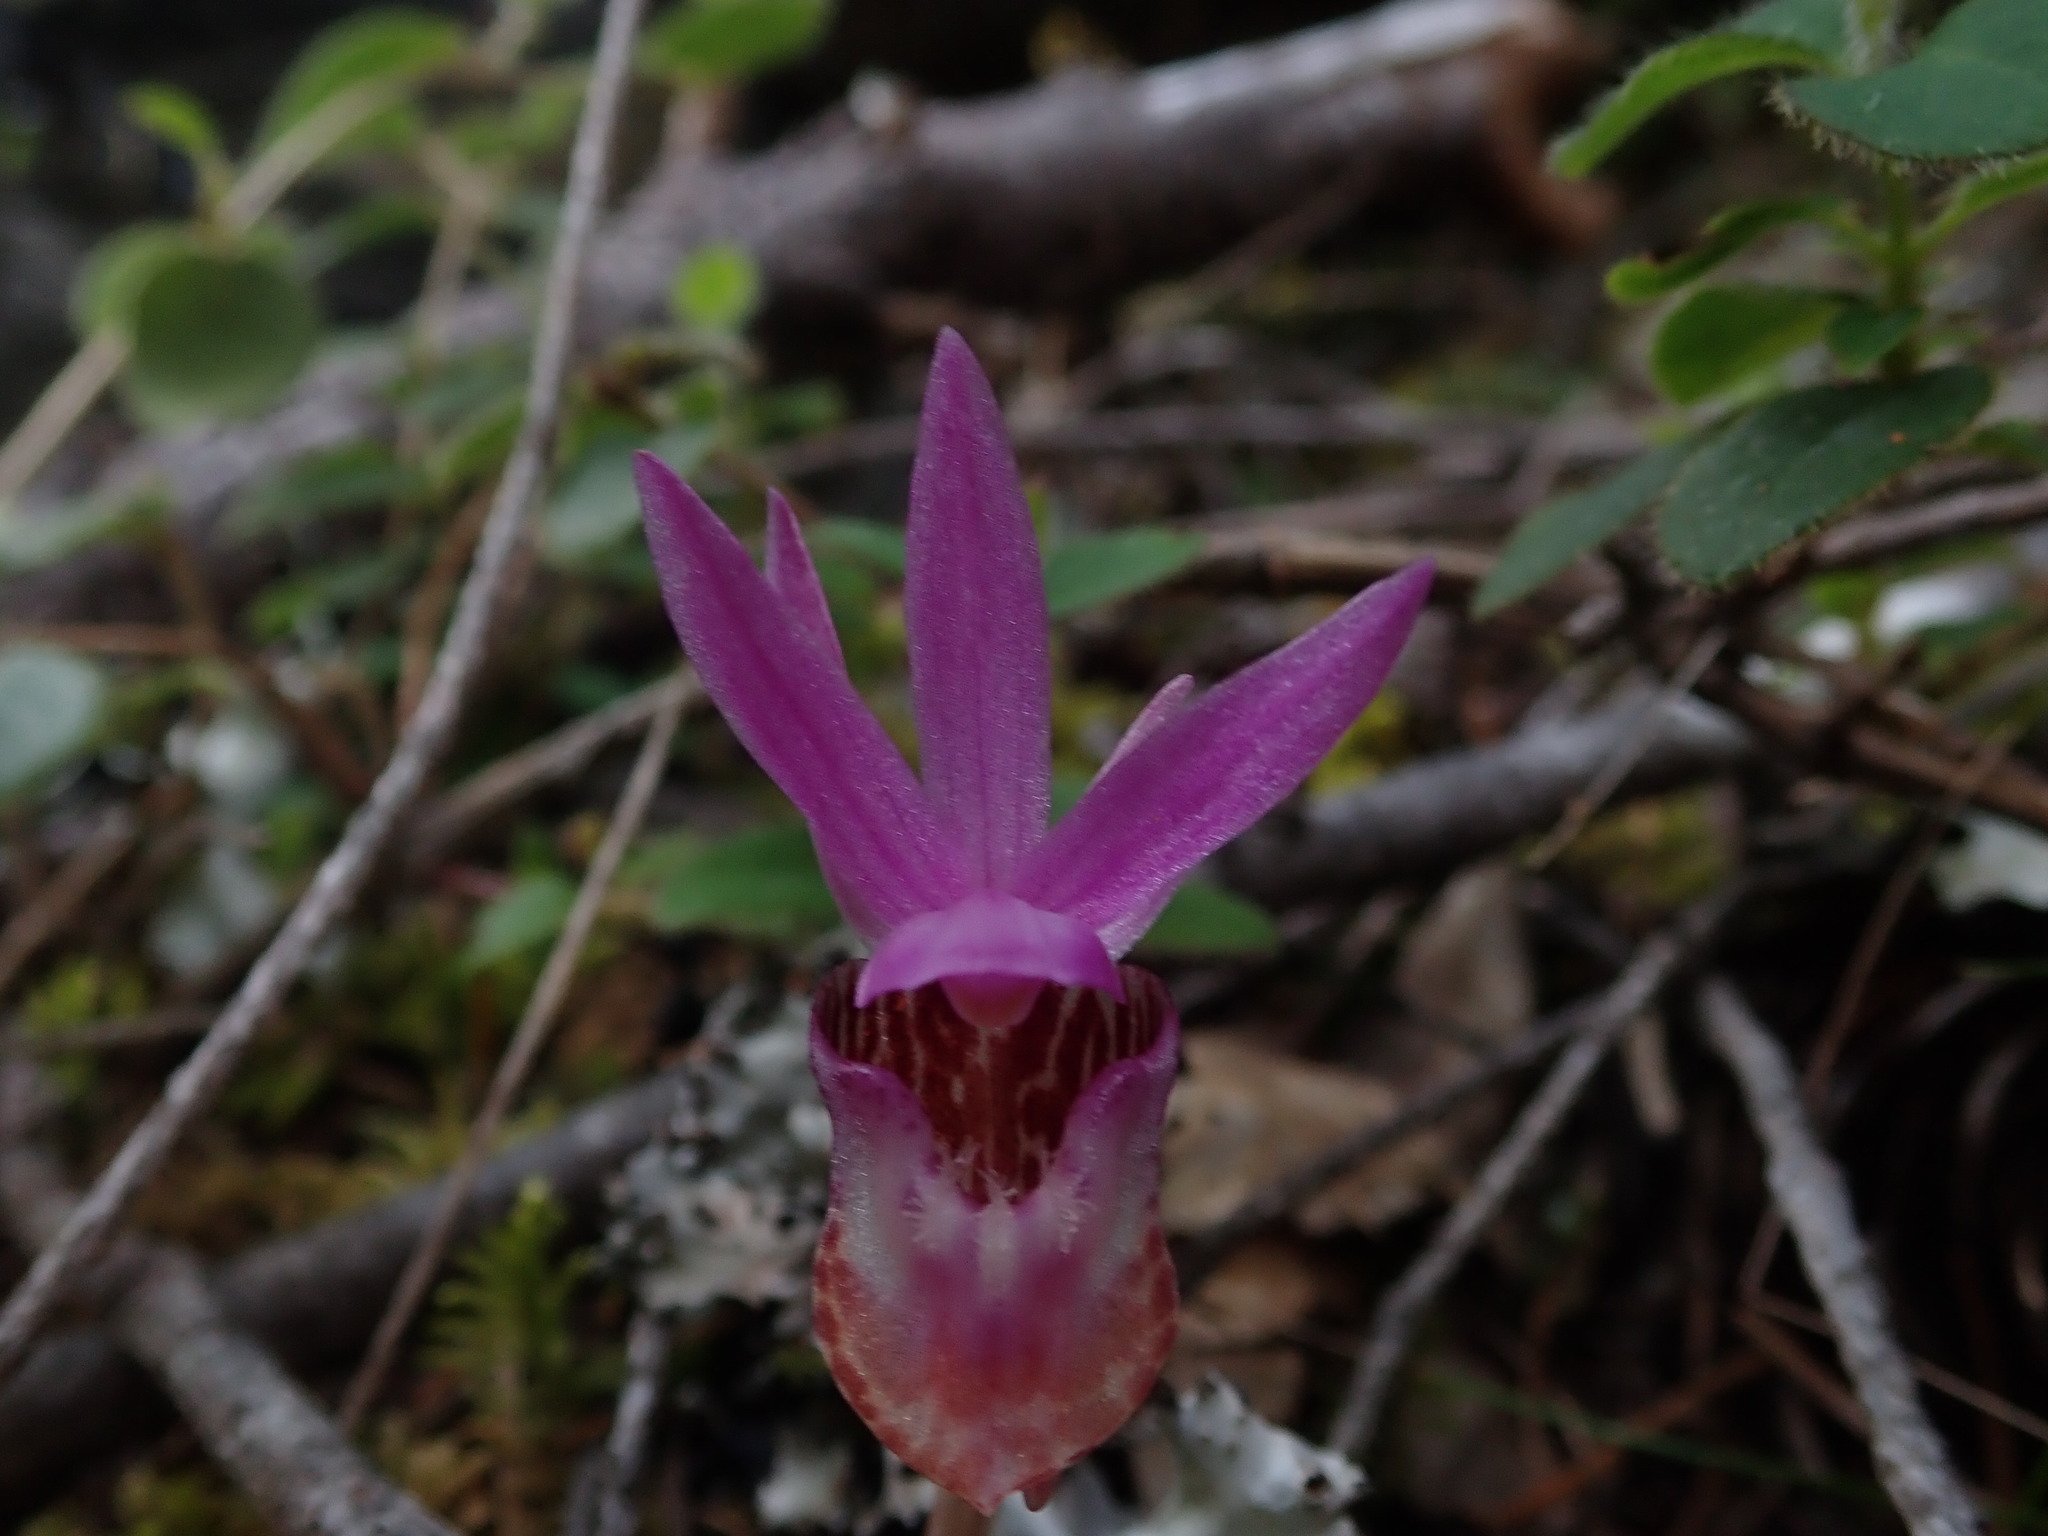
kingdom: Plantae
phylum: Tracheophyta
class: Liliopsida
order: Asparagales
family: Orchidaceae
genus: Calypso
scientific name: Calypso bulbosa
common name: Calypso
